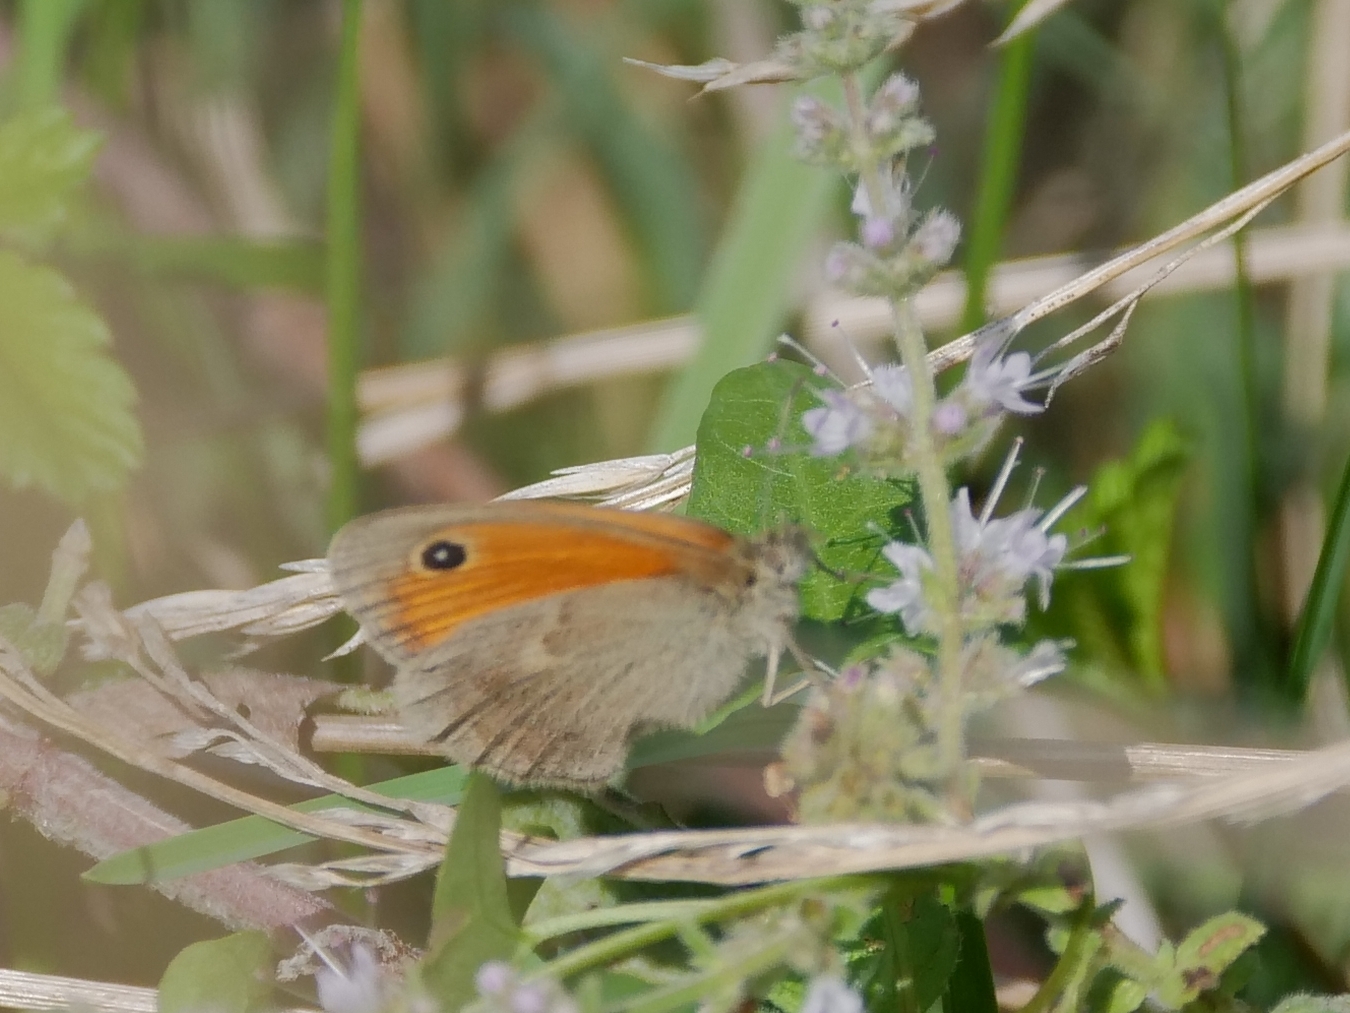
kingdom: Animalia
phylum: Arthropoda
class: Insecta
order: Lepidoptera
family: Nymphalidae
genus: Coenonympha
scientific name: Coenonympha pamphilus
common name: Small heath
